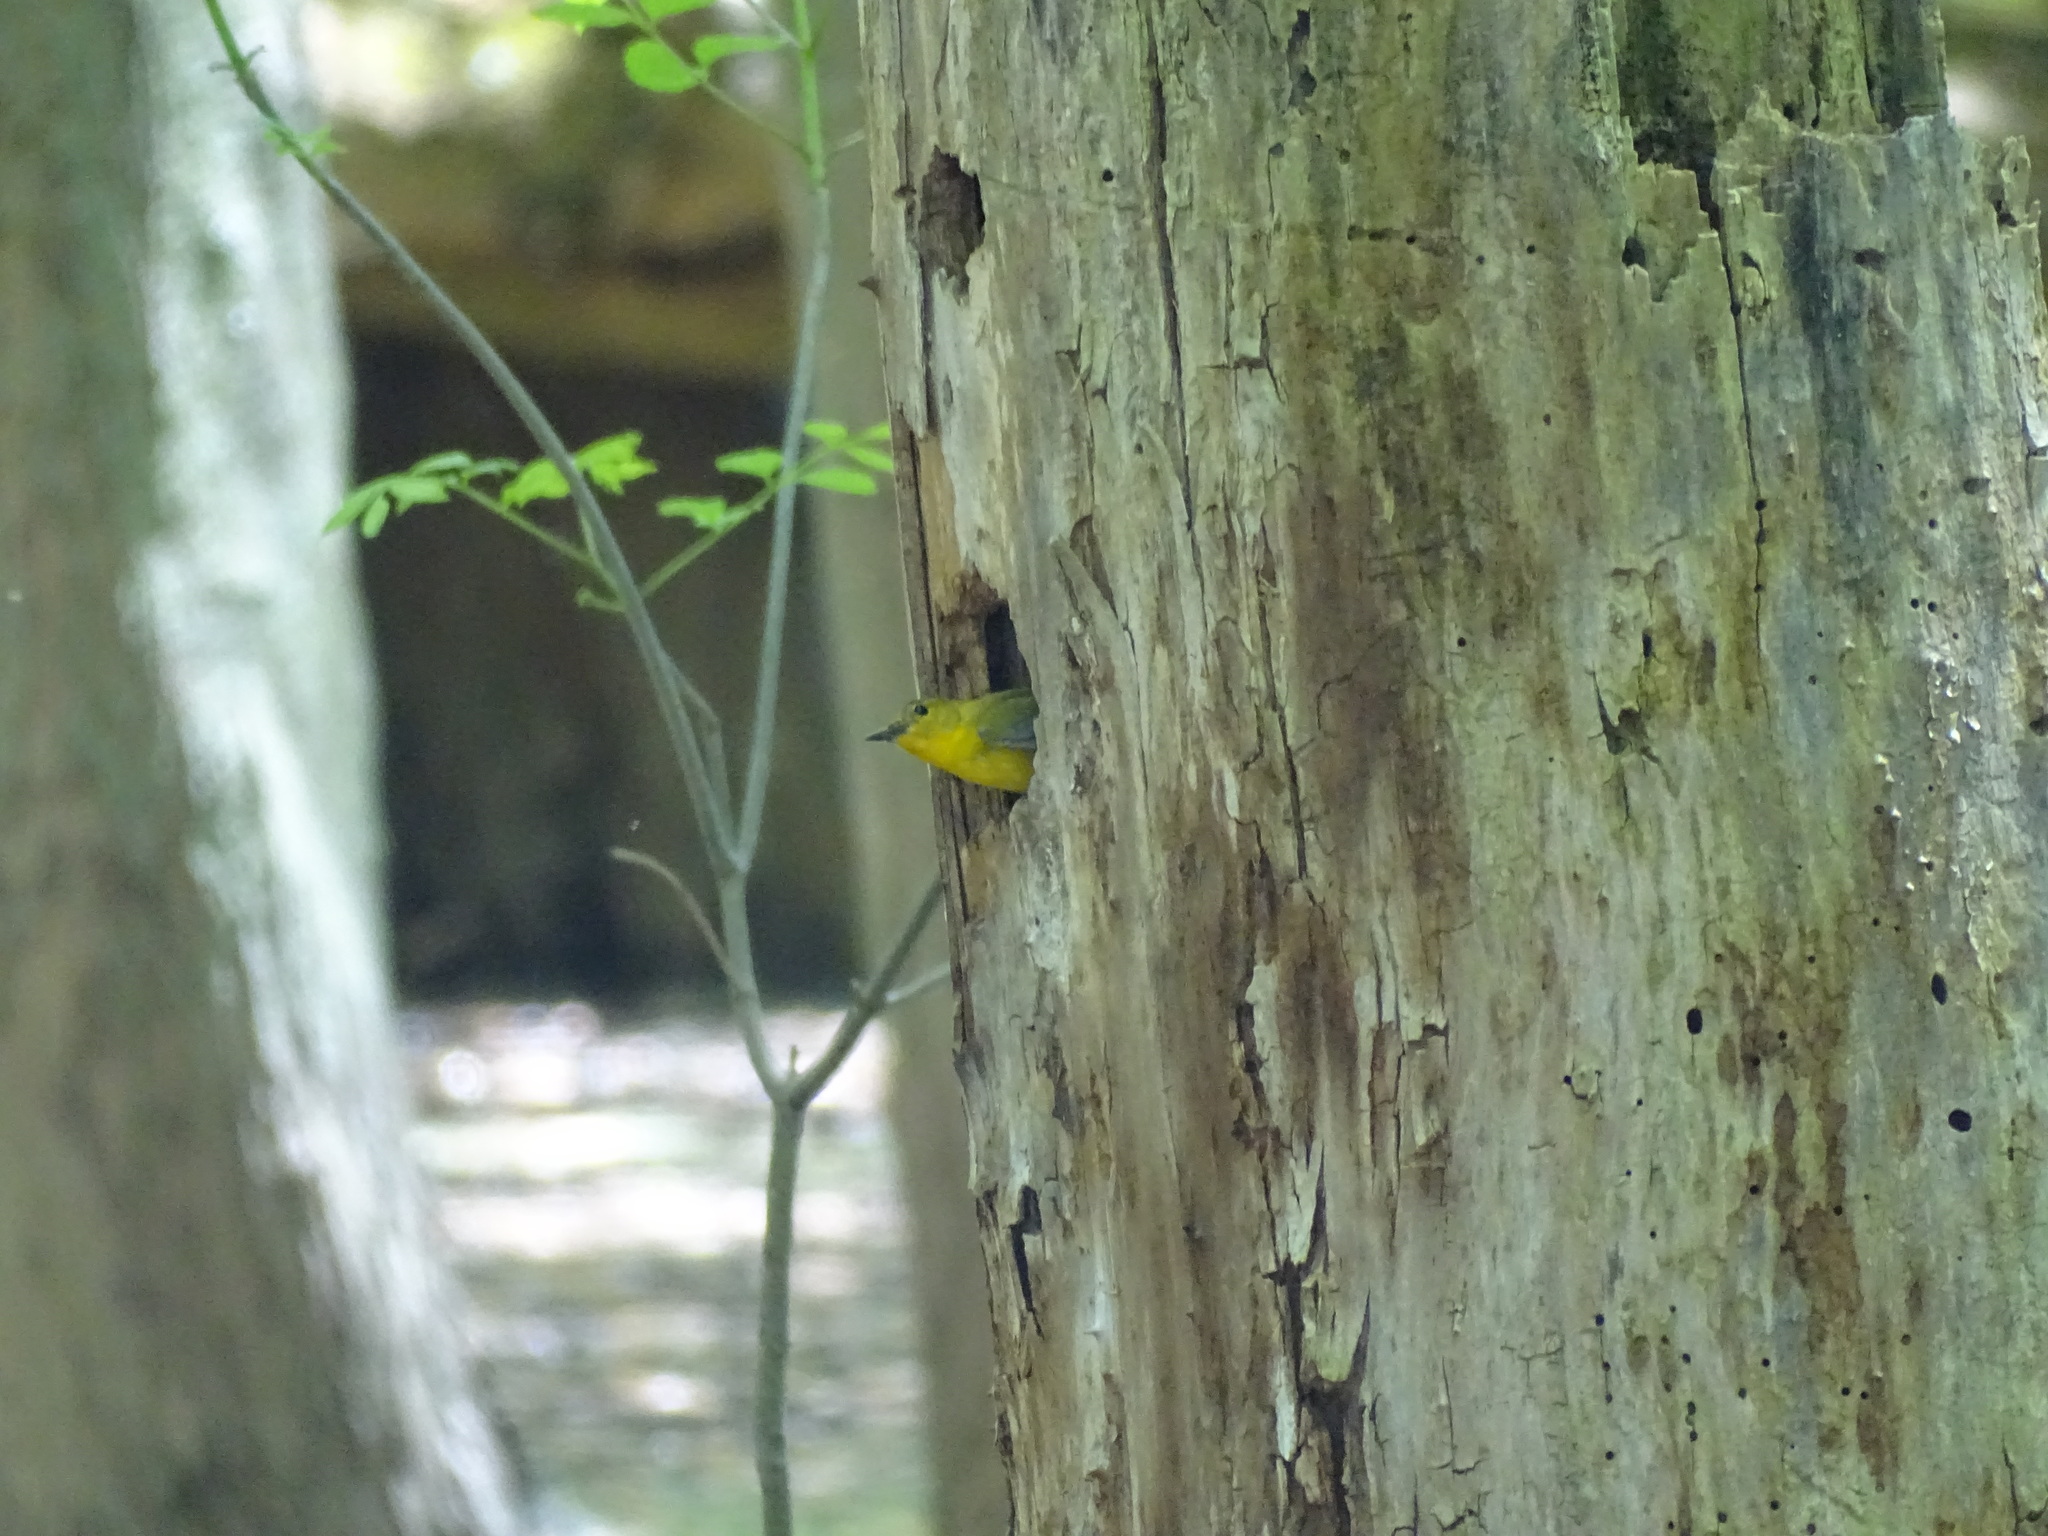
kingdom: Animalia
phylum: Chordata
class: Aves
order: Passeriformes
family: Parulidae
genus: Protonotaria
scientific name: Protonotaria citrea
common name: Prothonotary warbler
